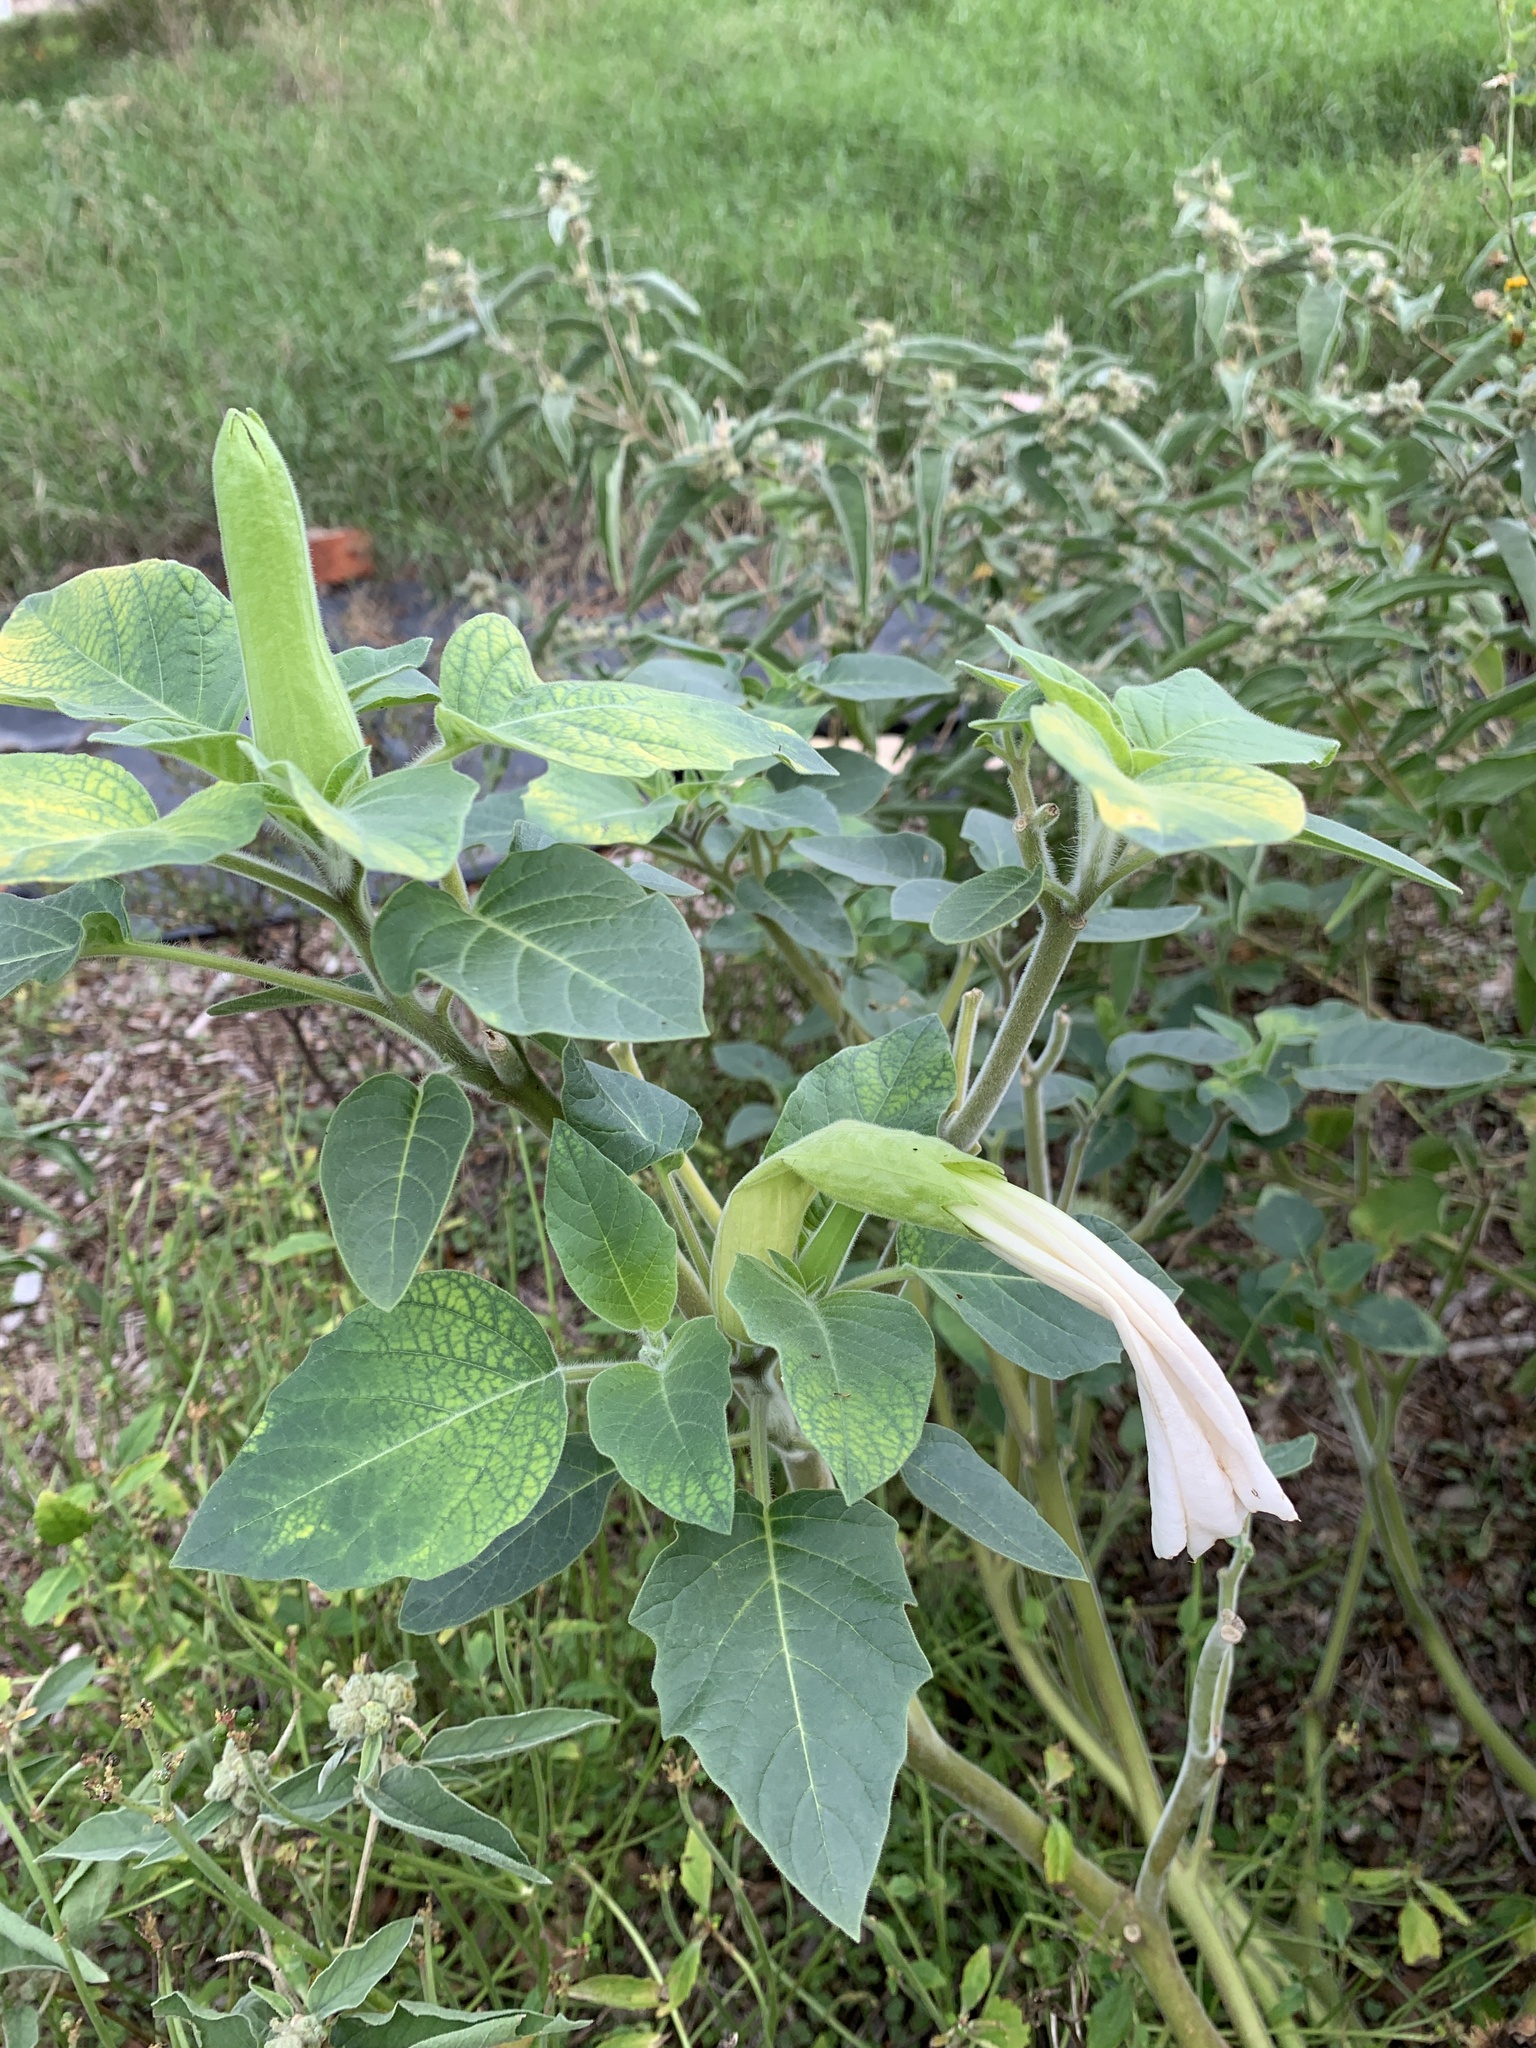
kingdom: Plantae
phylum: Tracheophyta
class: Magnoliopsida
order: Solanales
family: Solanaceae
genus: Datura
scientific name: Datura innoxia
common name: Downy thorn-apple
